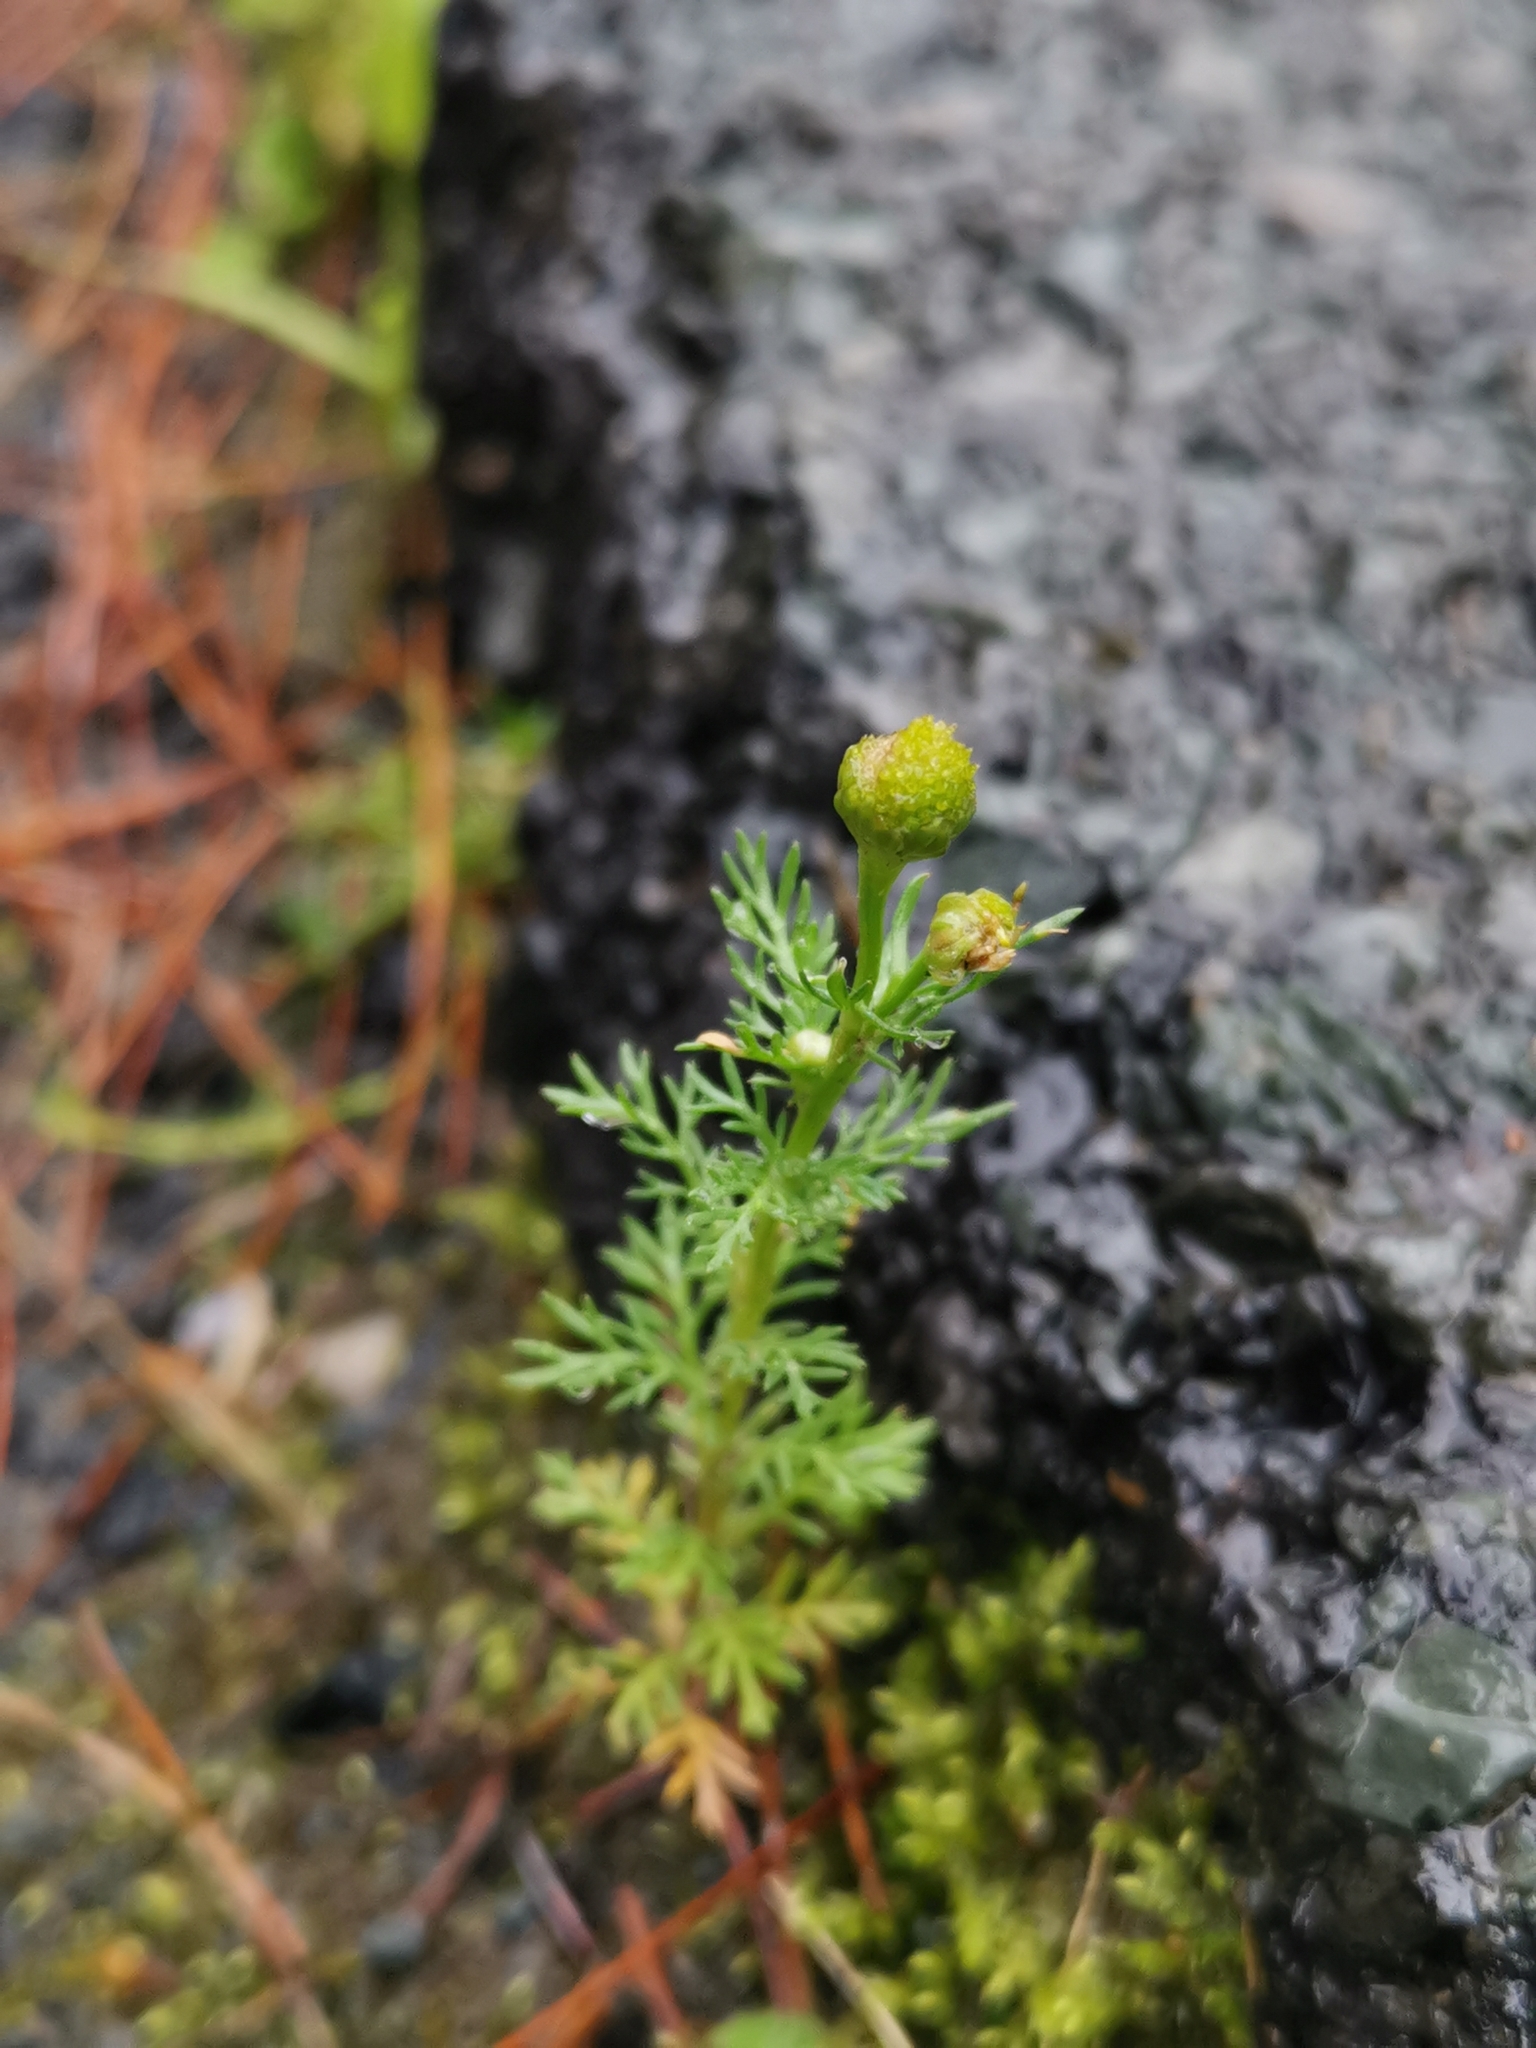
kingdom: Plantae
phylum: Tracheophyta
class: Magnoliopsida
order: Asterales
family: Asteraceae
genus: Matricaria
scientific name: Matricaria discoidea
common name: Disc mayweed
